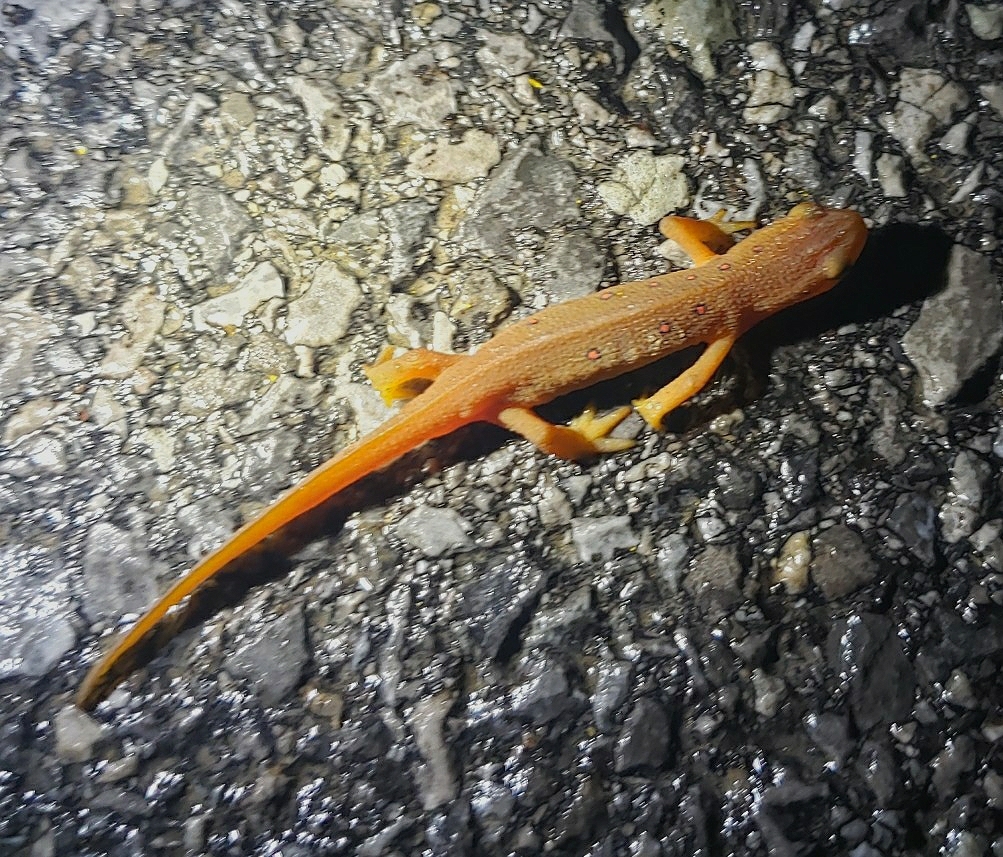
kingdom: Animalia
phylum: Chordata
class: Amphibia
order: Caudata
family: Salamandridae
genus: Notophthalmus
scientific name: Notophthalmus viridescens
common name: Eastern newt
